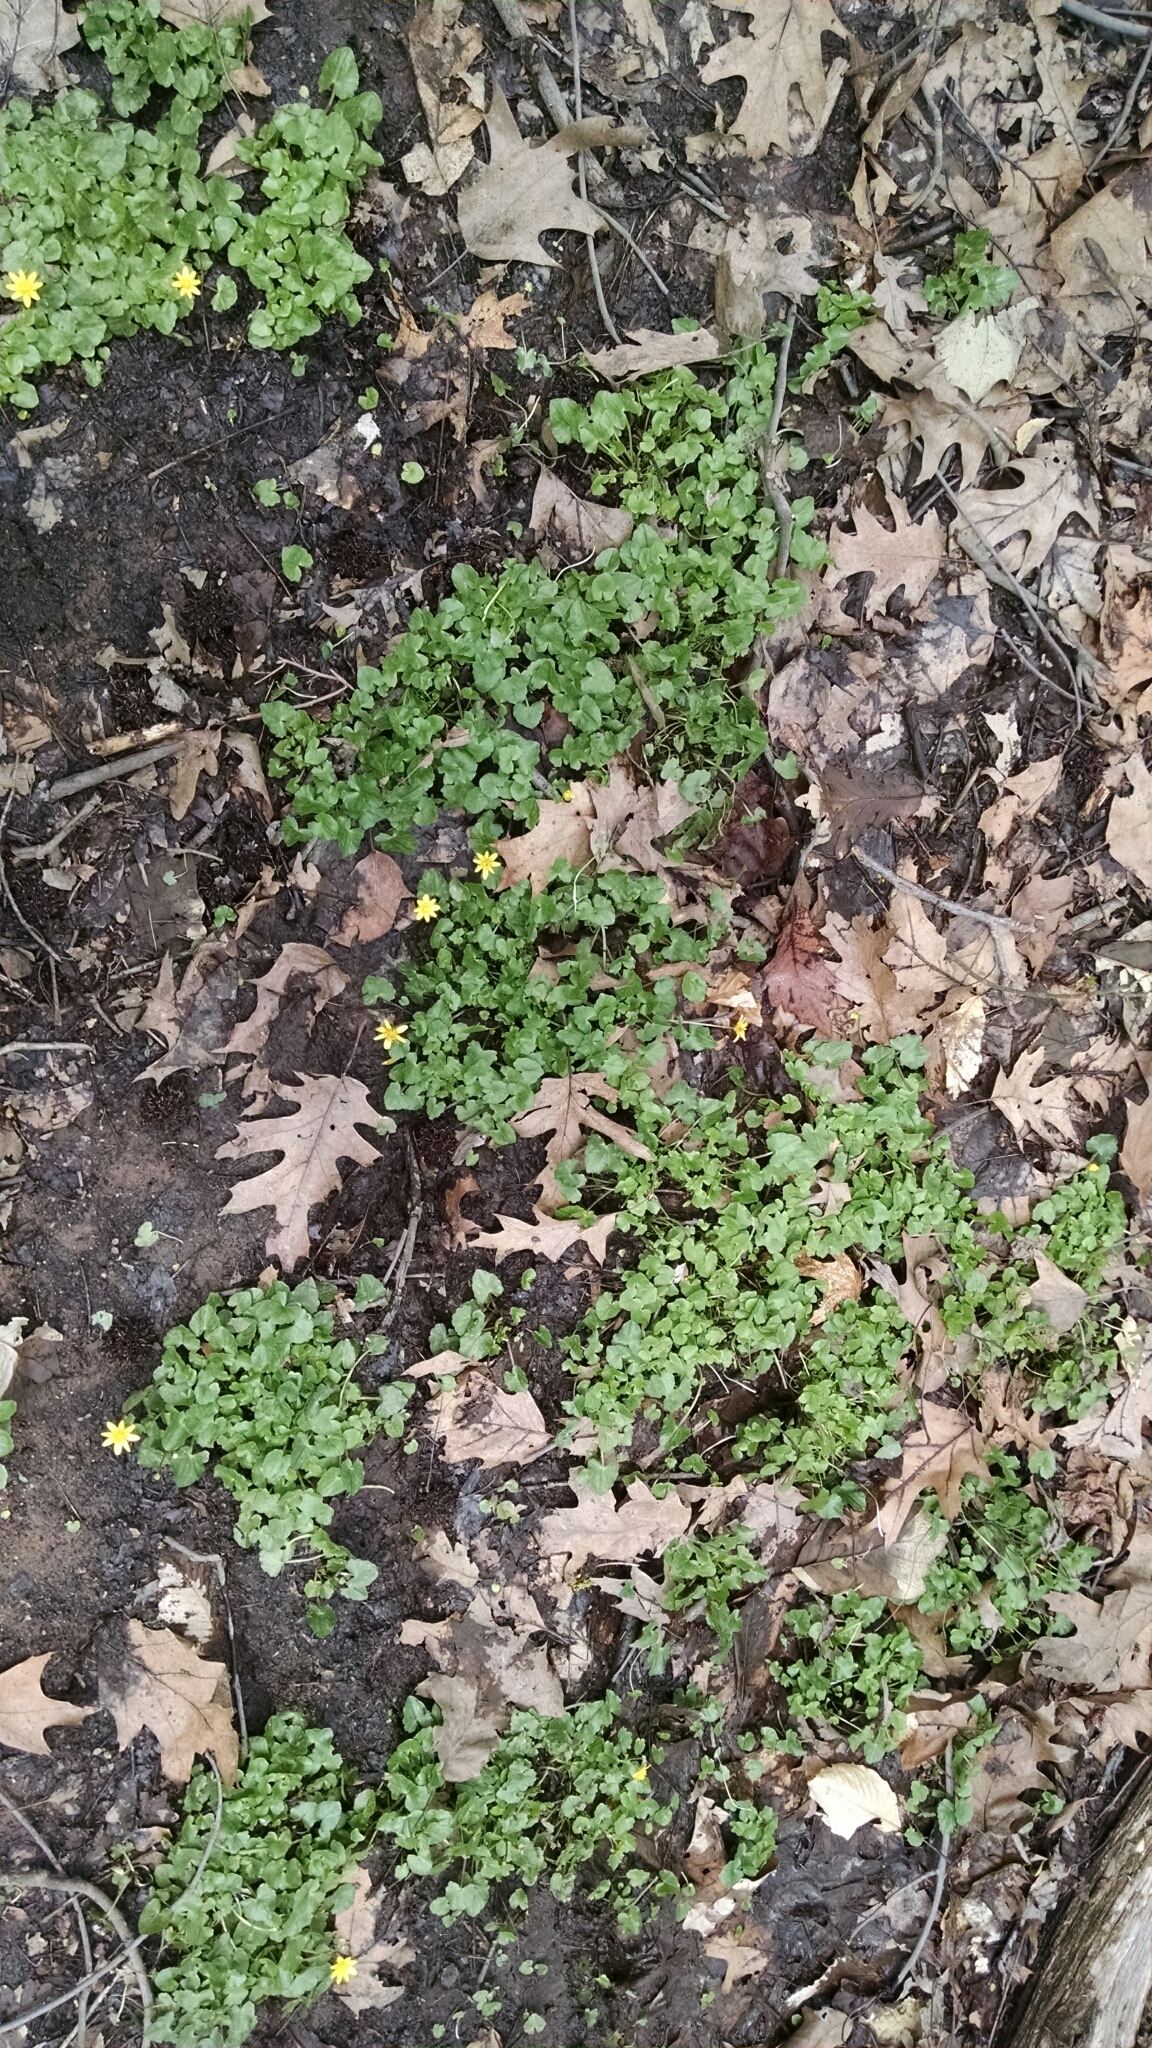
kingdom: Plantae
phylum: Tracheophyta
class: Magnoliopsida
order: Ranunculales
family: Ranunculaceae
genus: Ficaria
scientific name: Ficaria verna
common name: Lesser celandine
